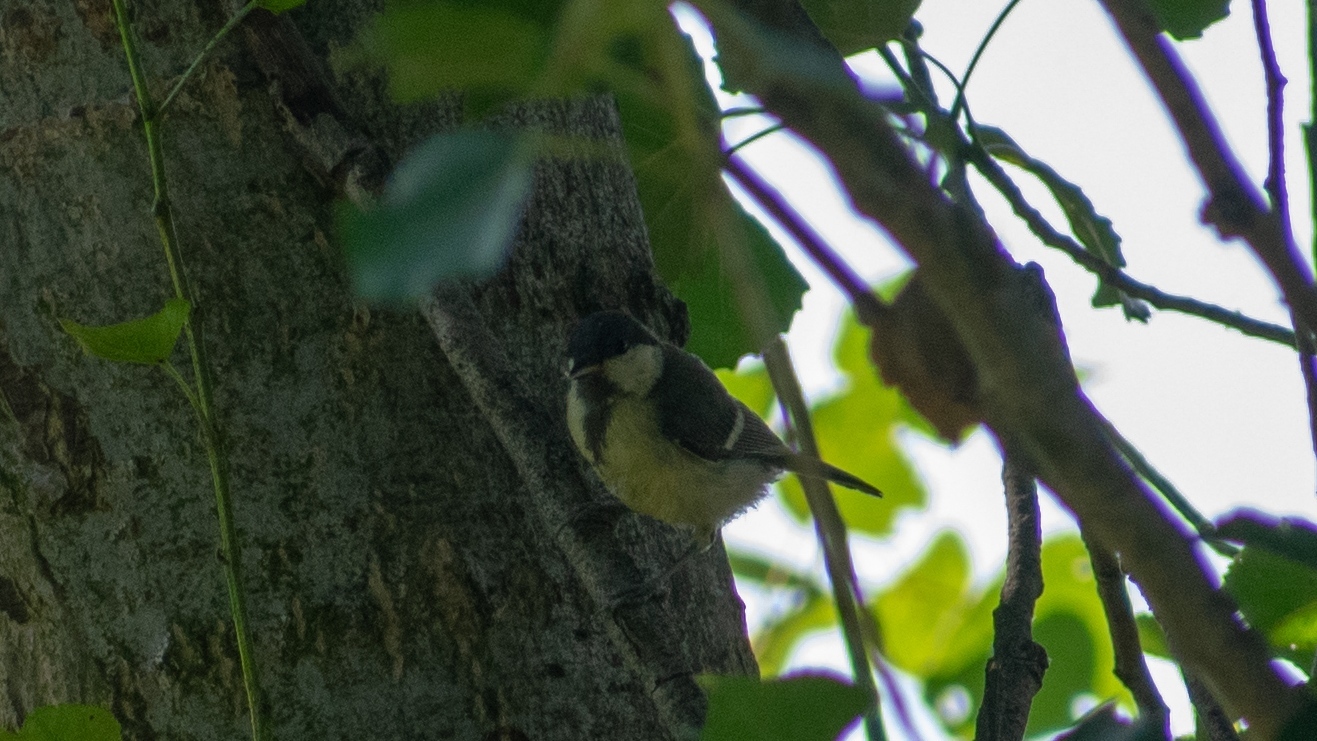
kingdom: Animalia
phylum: Chordata
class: Aves
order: Passeriformes
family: Paridae
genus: Parus
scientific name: Parus major
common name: Great tit
